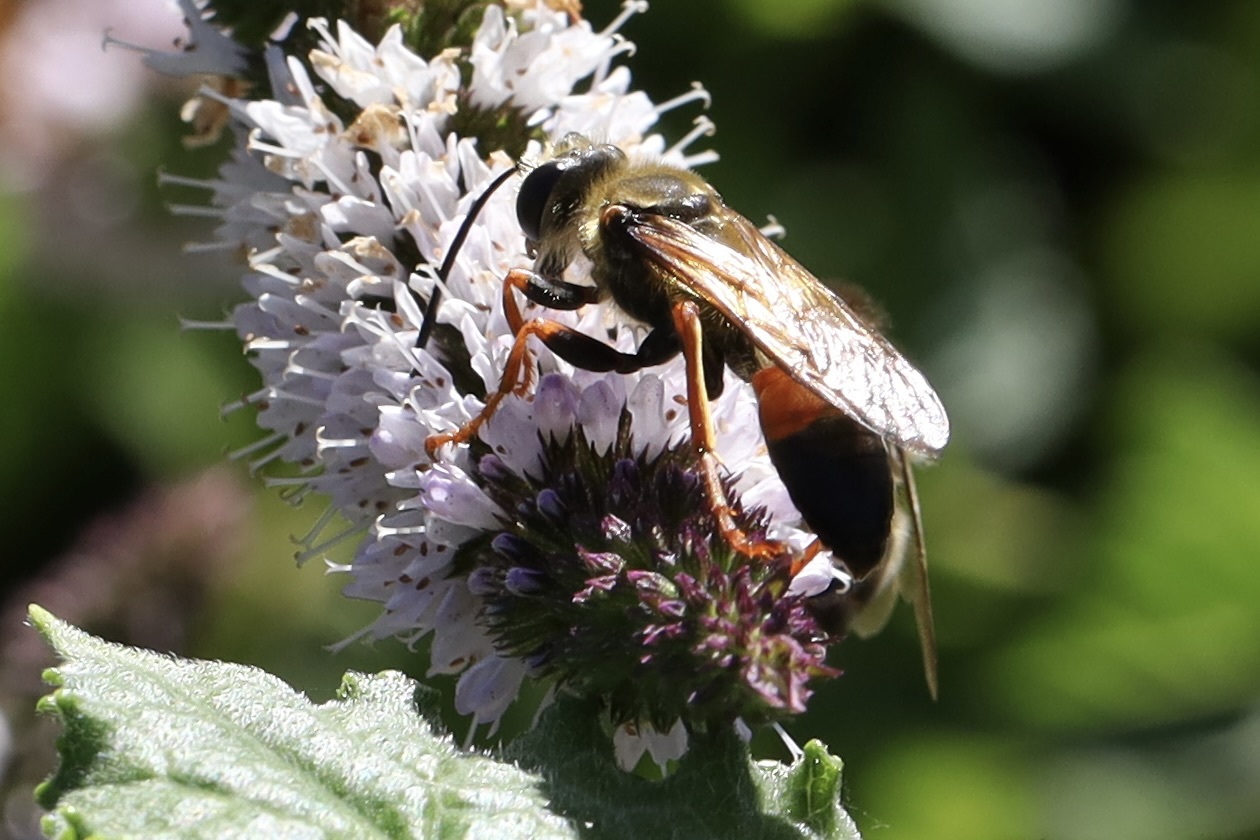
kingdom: Animalia
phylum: Arthropoda
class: Insecta
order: Hymenoptera
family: Sphecidae
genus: Sphex
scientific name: Sphex ichneumoneus
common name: Great golden digger wasp
